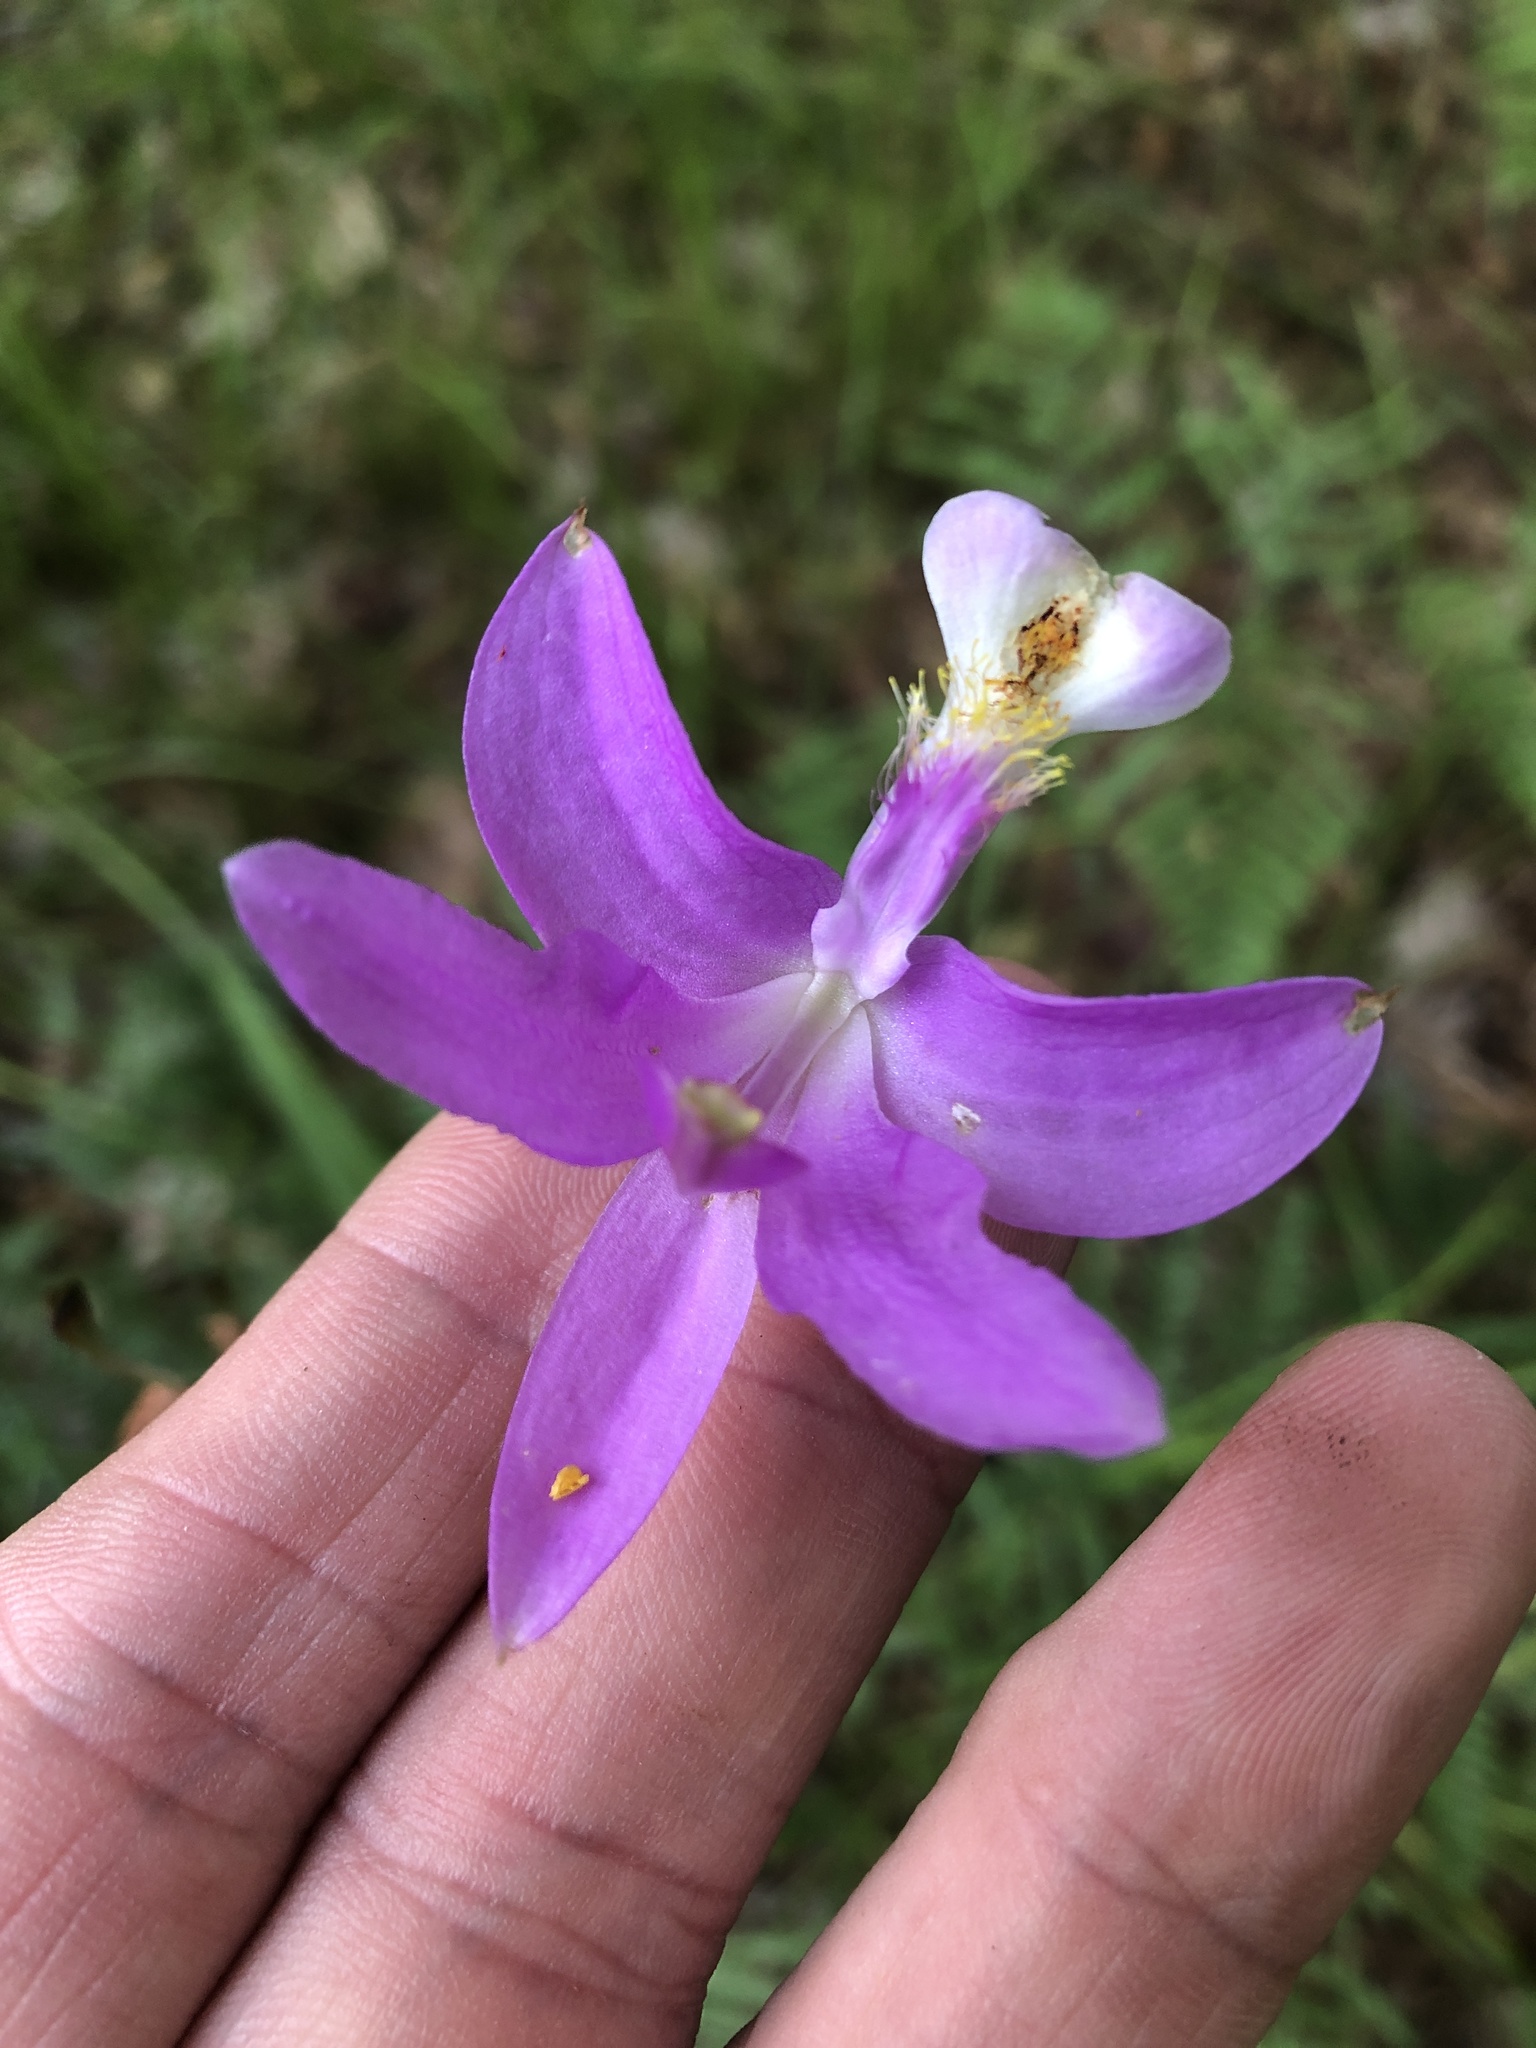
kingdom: Plantae
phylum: Tracheophyta
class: Liliopsida
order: Asparagales
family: Orchidaceae
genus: Calopogon
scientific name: Calopogon tuberosus
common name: Grass-pink
